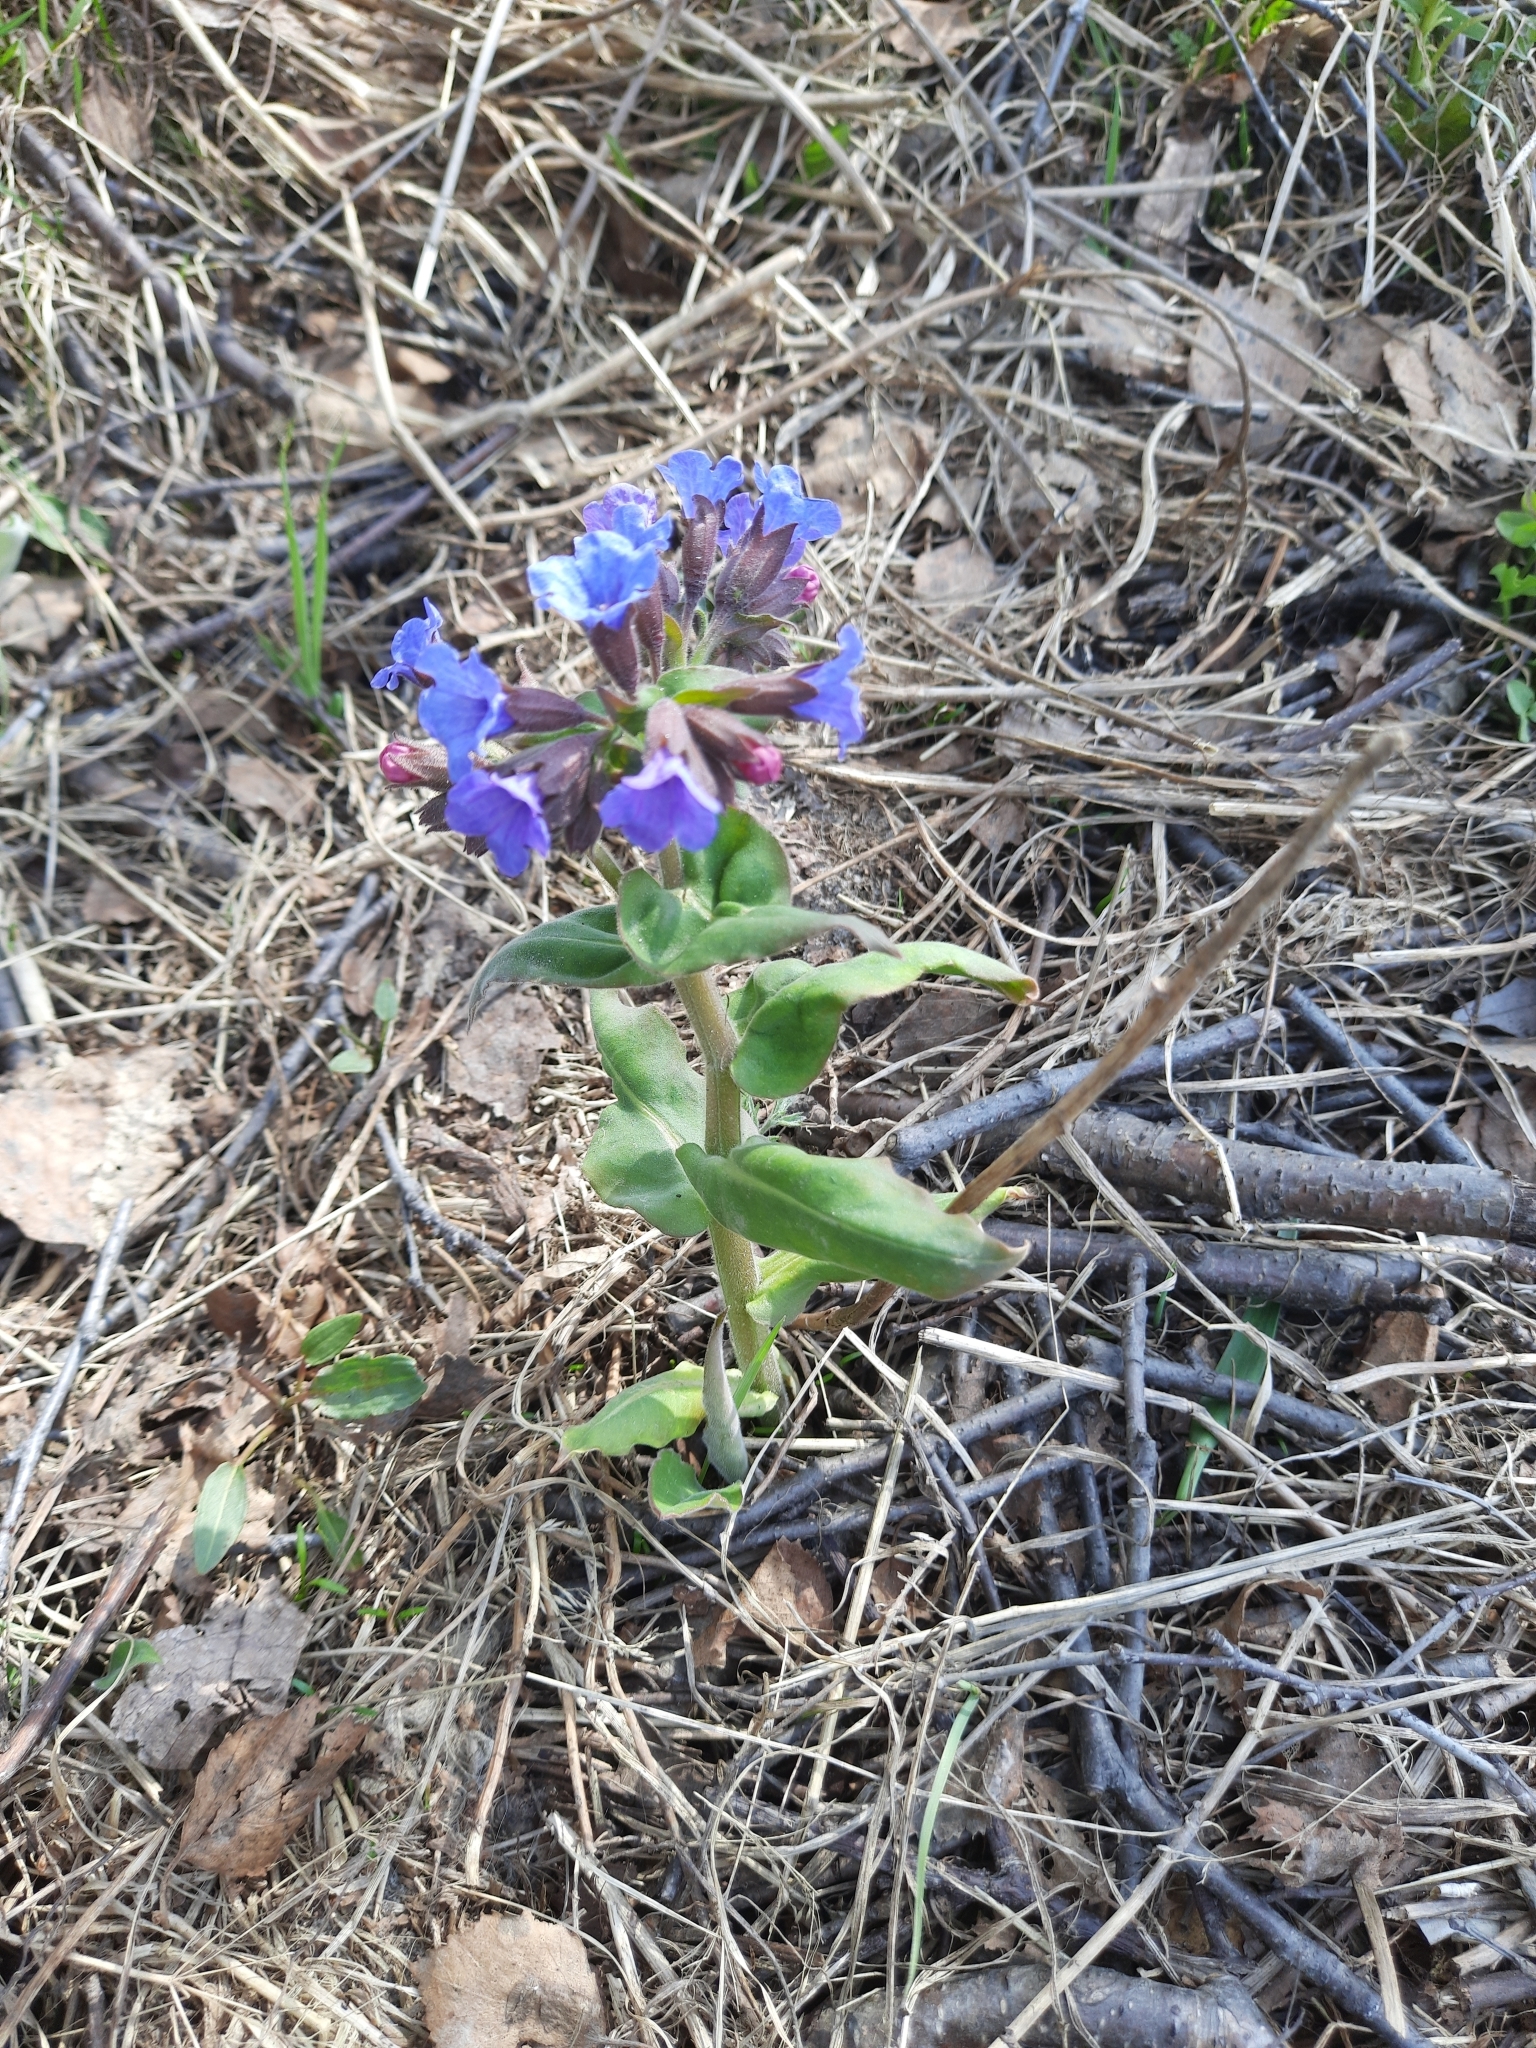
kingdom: Plantae
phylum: Tracheophyta
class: Magnoliopsida
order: Boraginales
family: Boraginaceae
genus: Pulmonaria
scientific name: Pulmonaria mollis
